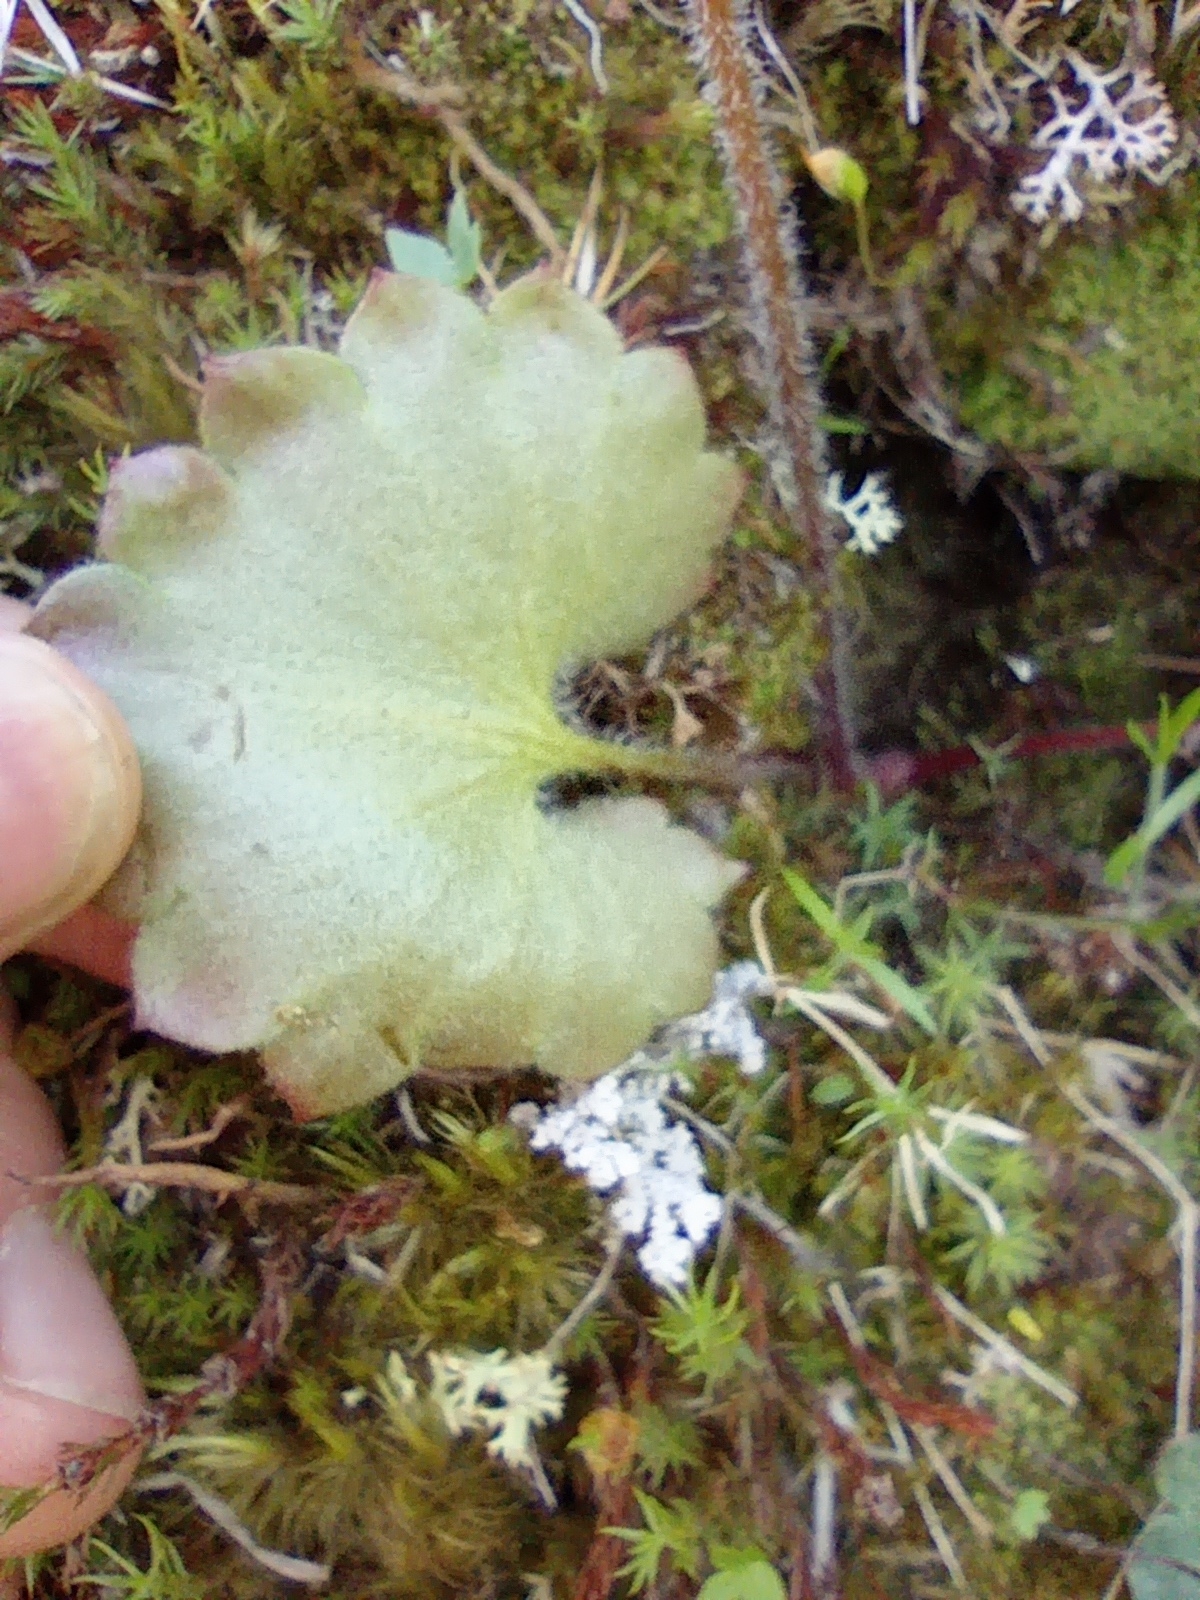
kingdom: Plantae
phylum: Tracheophyta
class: Magnoliopsida
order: Saxifragales
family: Saxifragaceae
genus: Micranthes
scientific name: Micranthes nelsoniana
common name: Nelson's saxifrage
